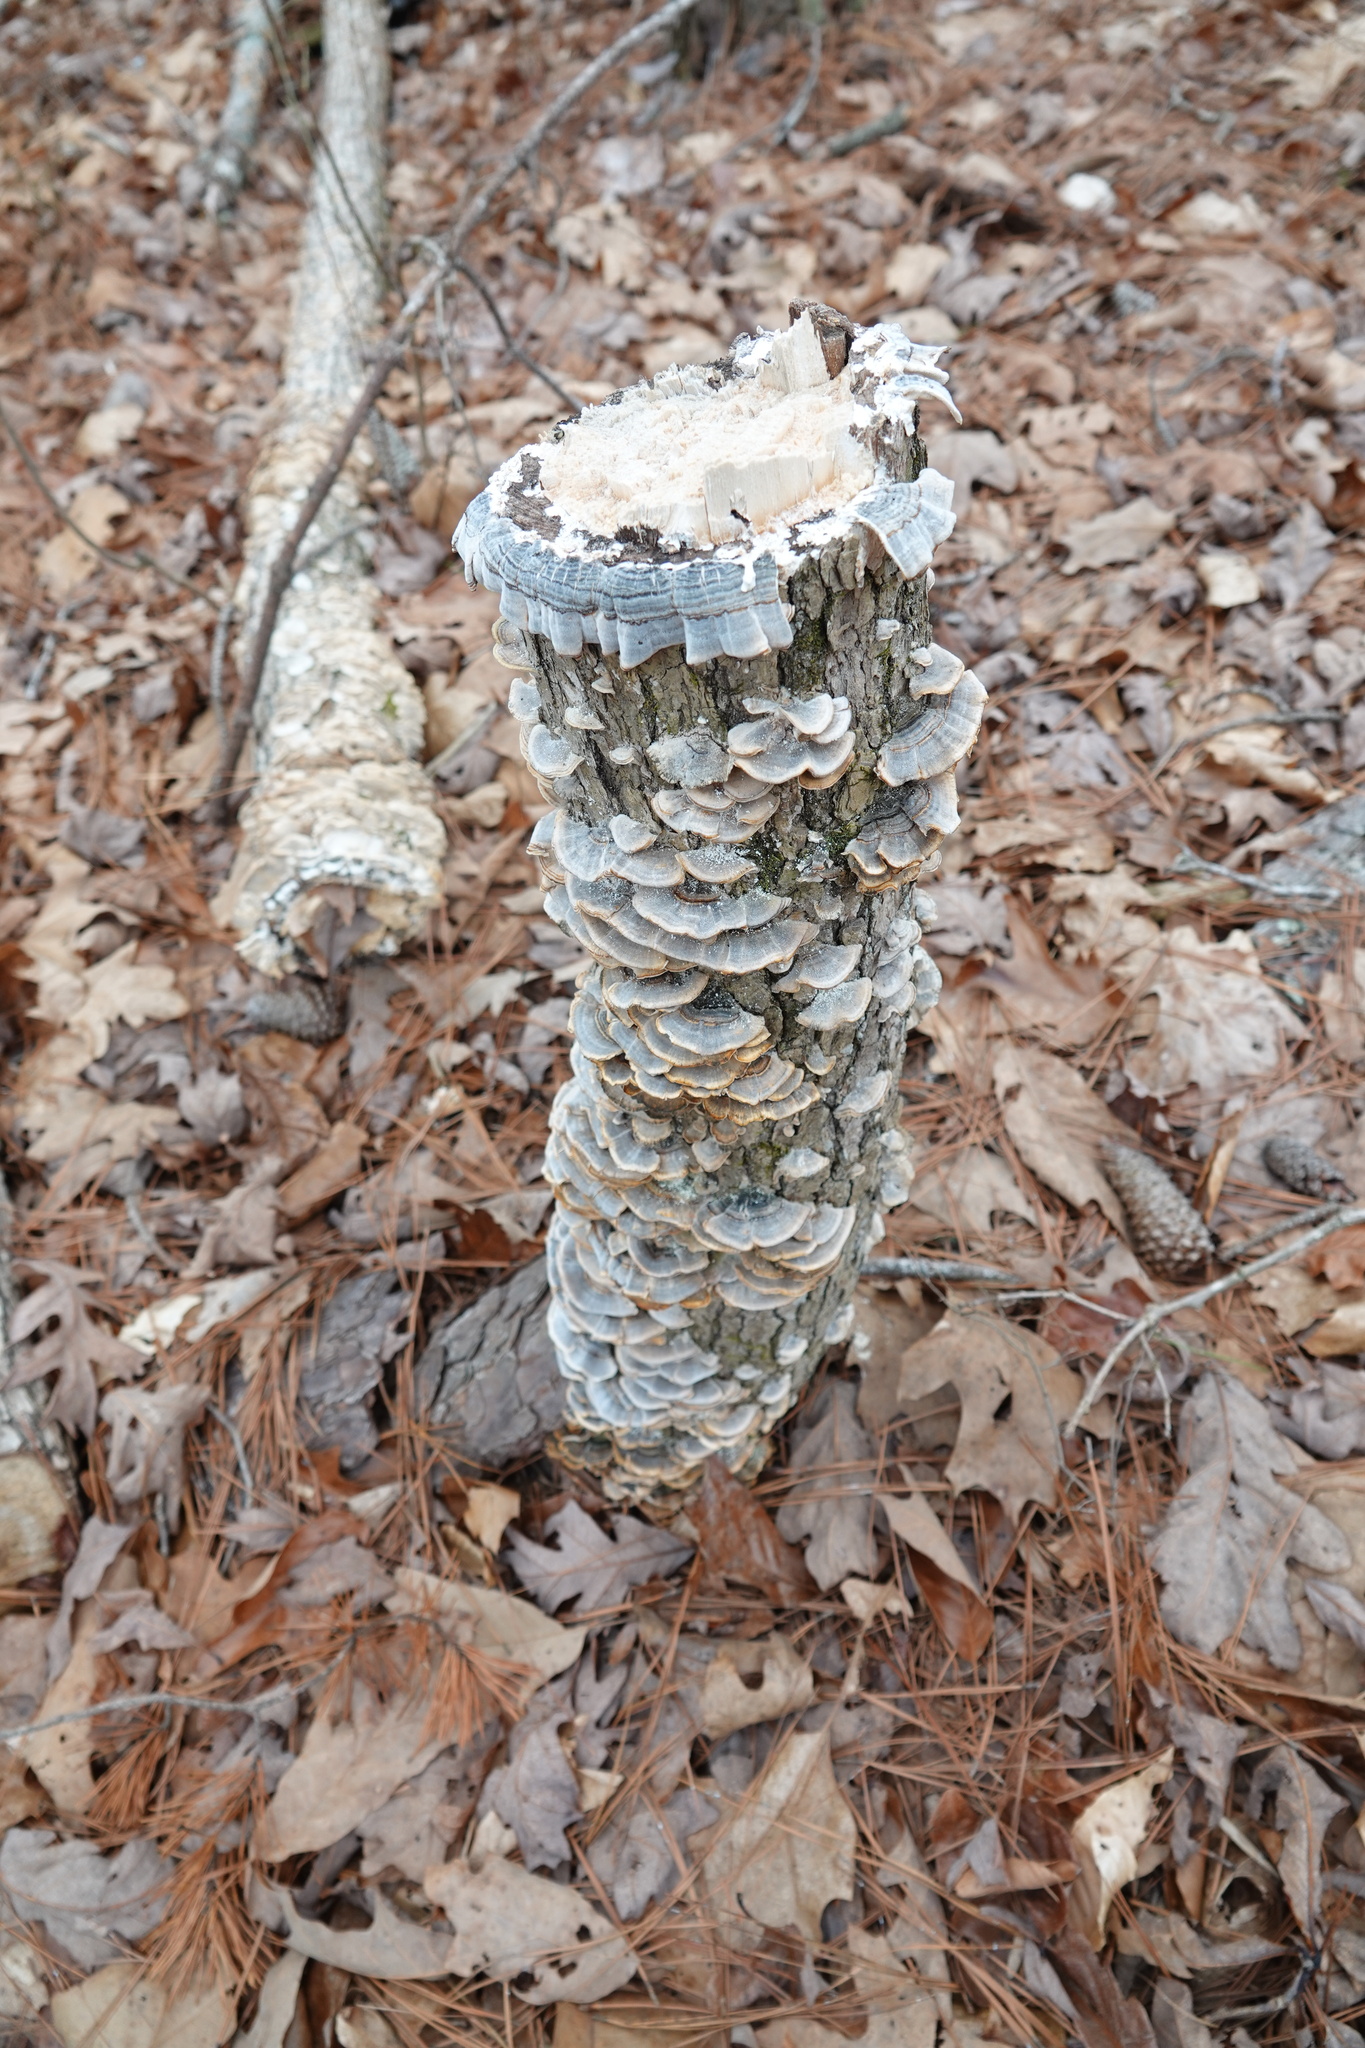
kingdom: Fungi
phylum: Basidiomycota
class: Agaricomycetes
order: Polyporales
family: Polyporaceae
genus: Trametes
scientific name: Trametes versicolor
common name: Turkeytail
